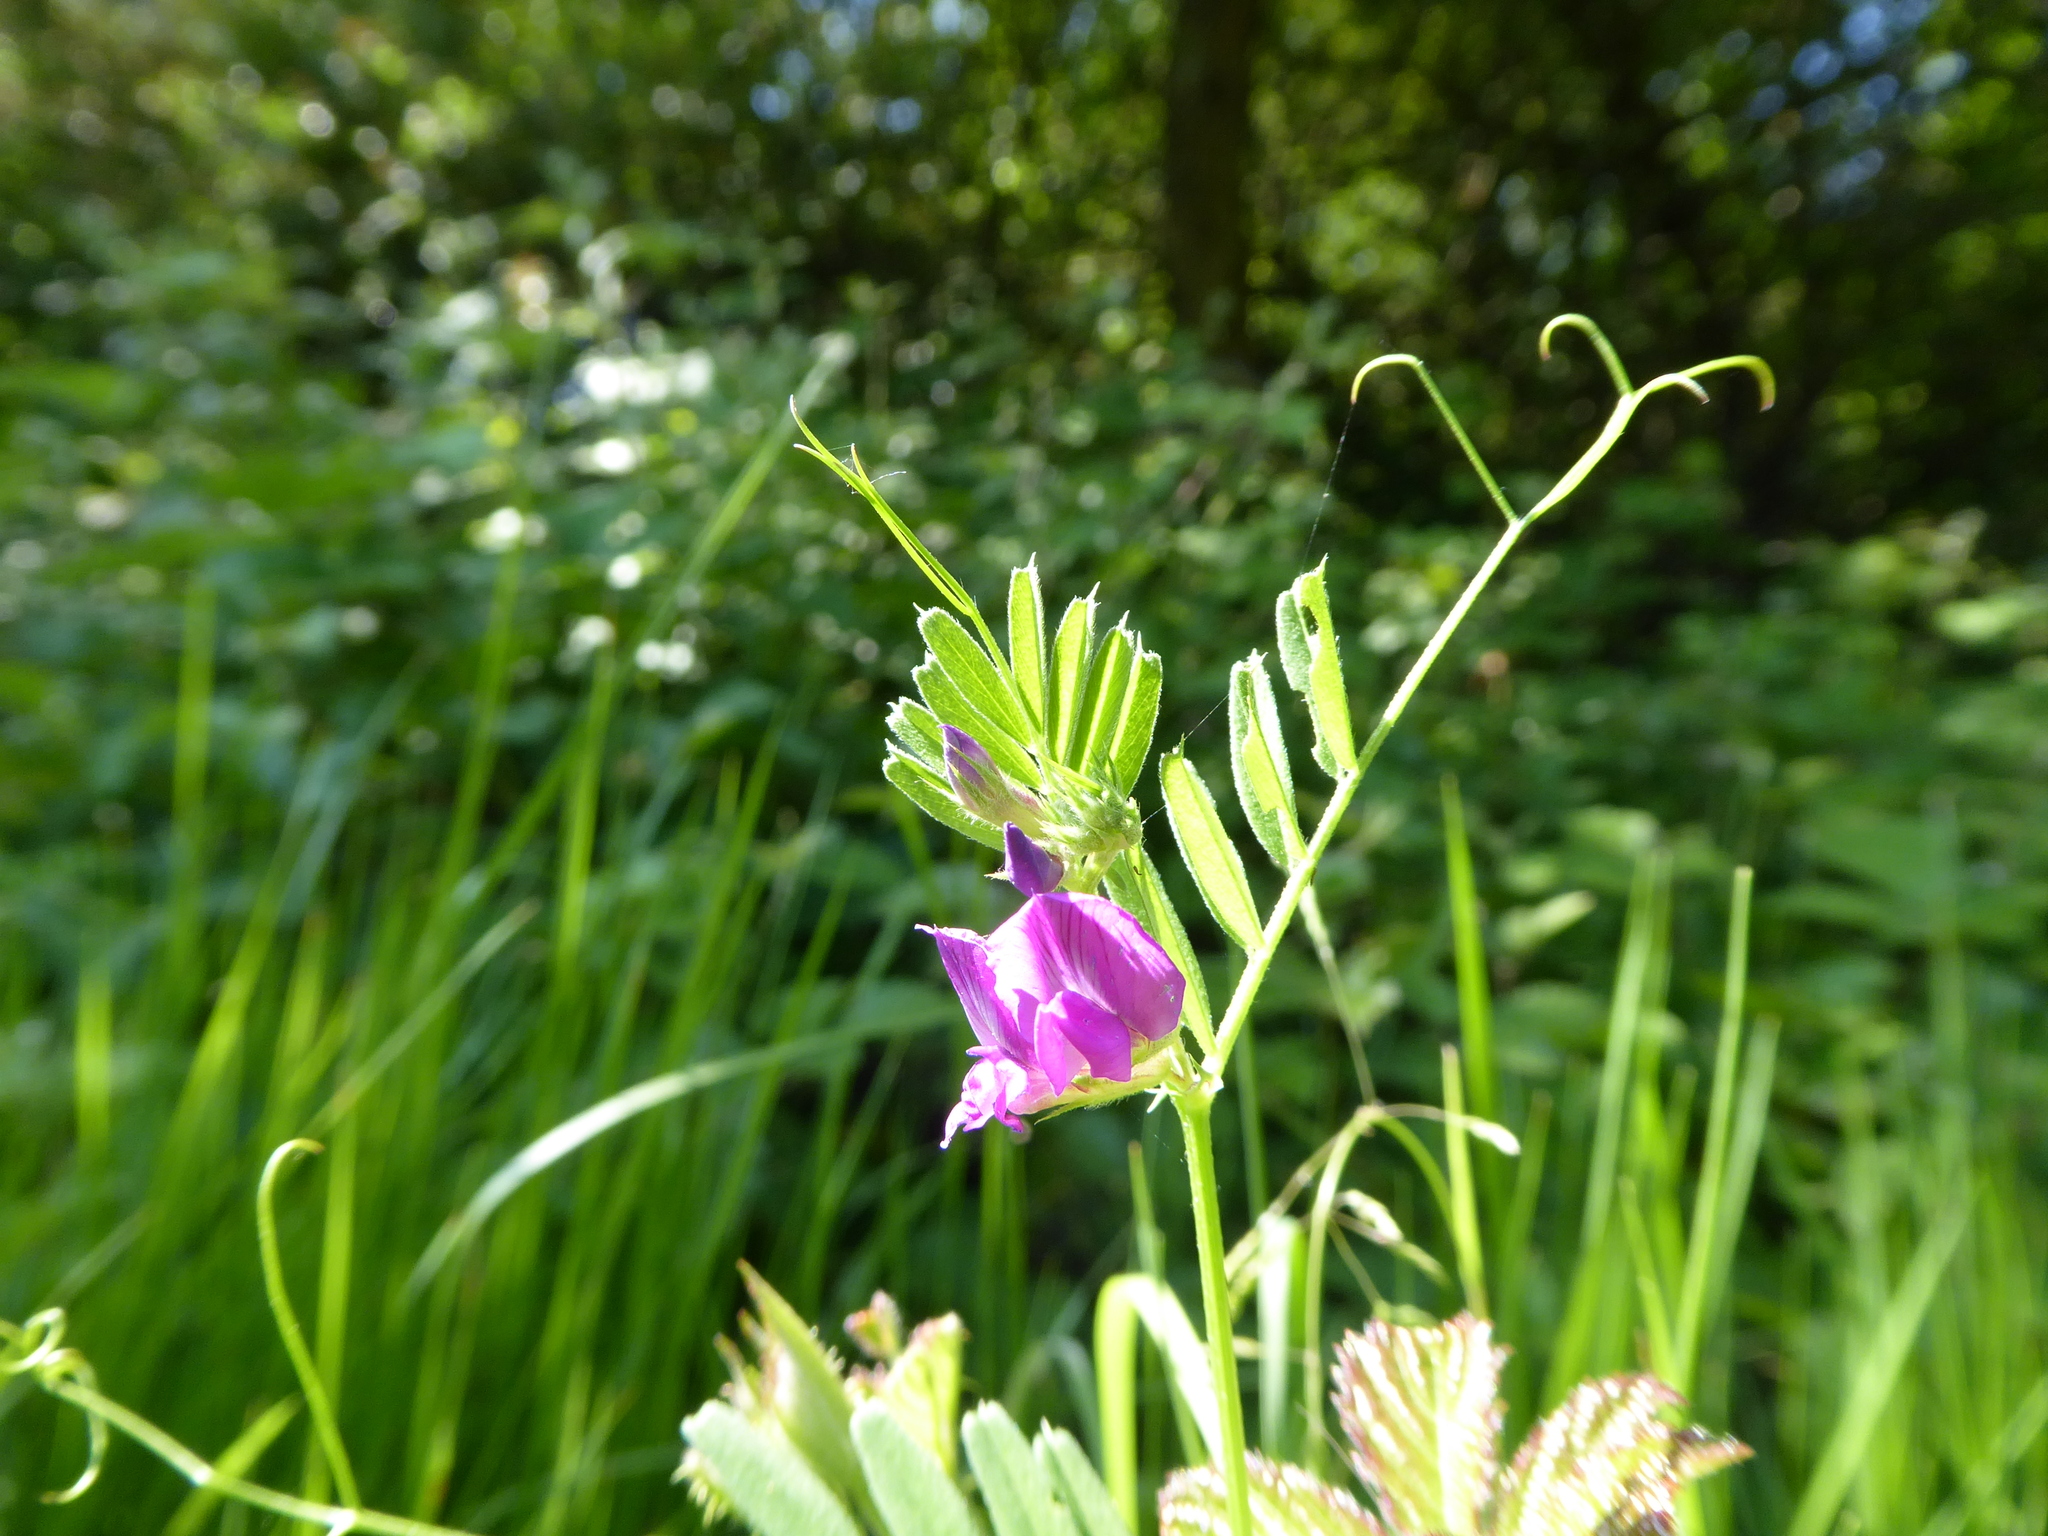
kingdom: Plantae
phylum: Tracheophyta
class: Magnoliopsida
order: Fabales
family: Fabaceae
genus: Vicia
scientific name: Vicia sativa
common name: Garden vetch
